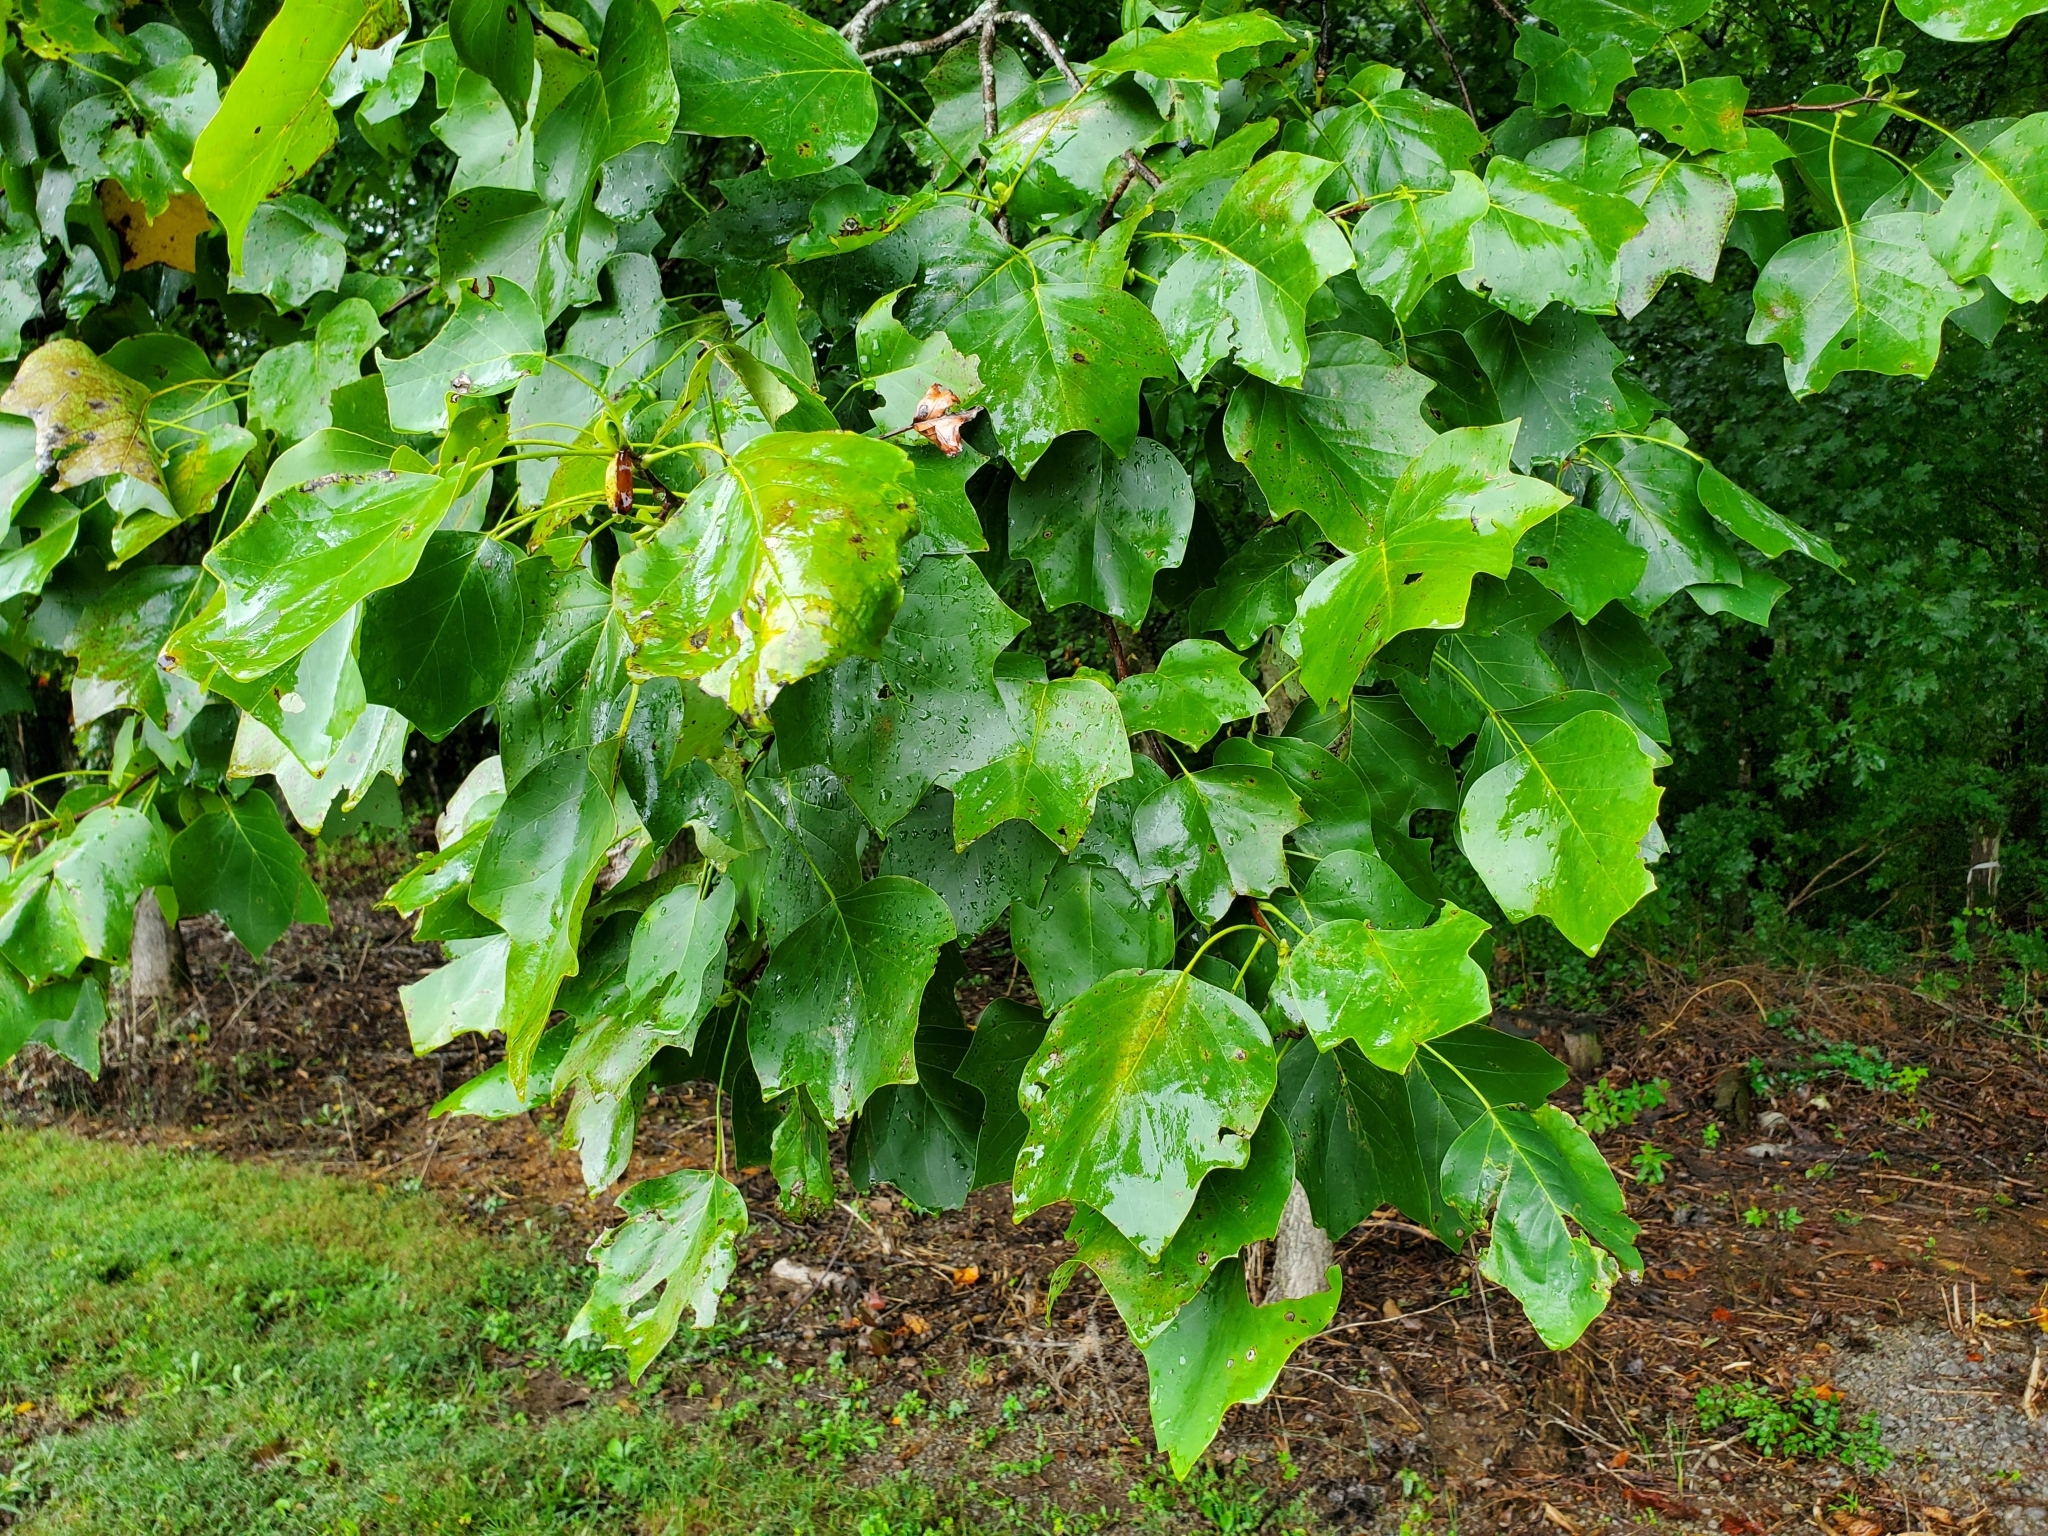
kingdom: Plantae
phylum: Tracheophyta
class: Magnoliopsida
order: Magnoliales
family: Magnoliaceae
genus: Liriodendron
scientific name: Liriodendron tulipifera
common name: Tulip tree
